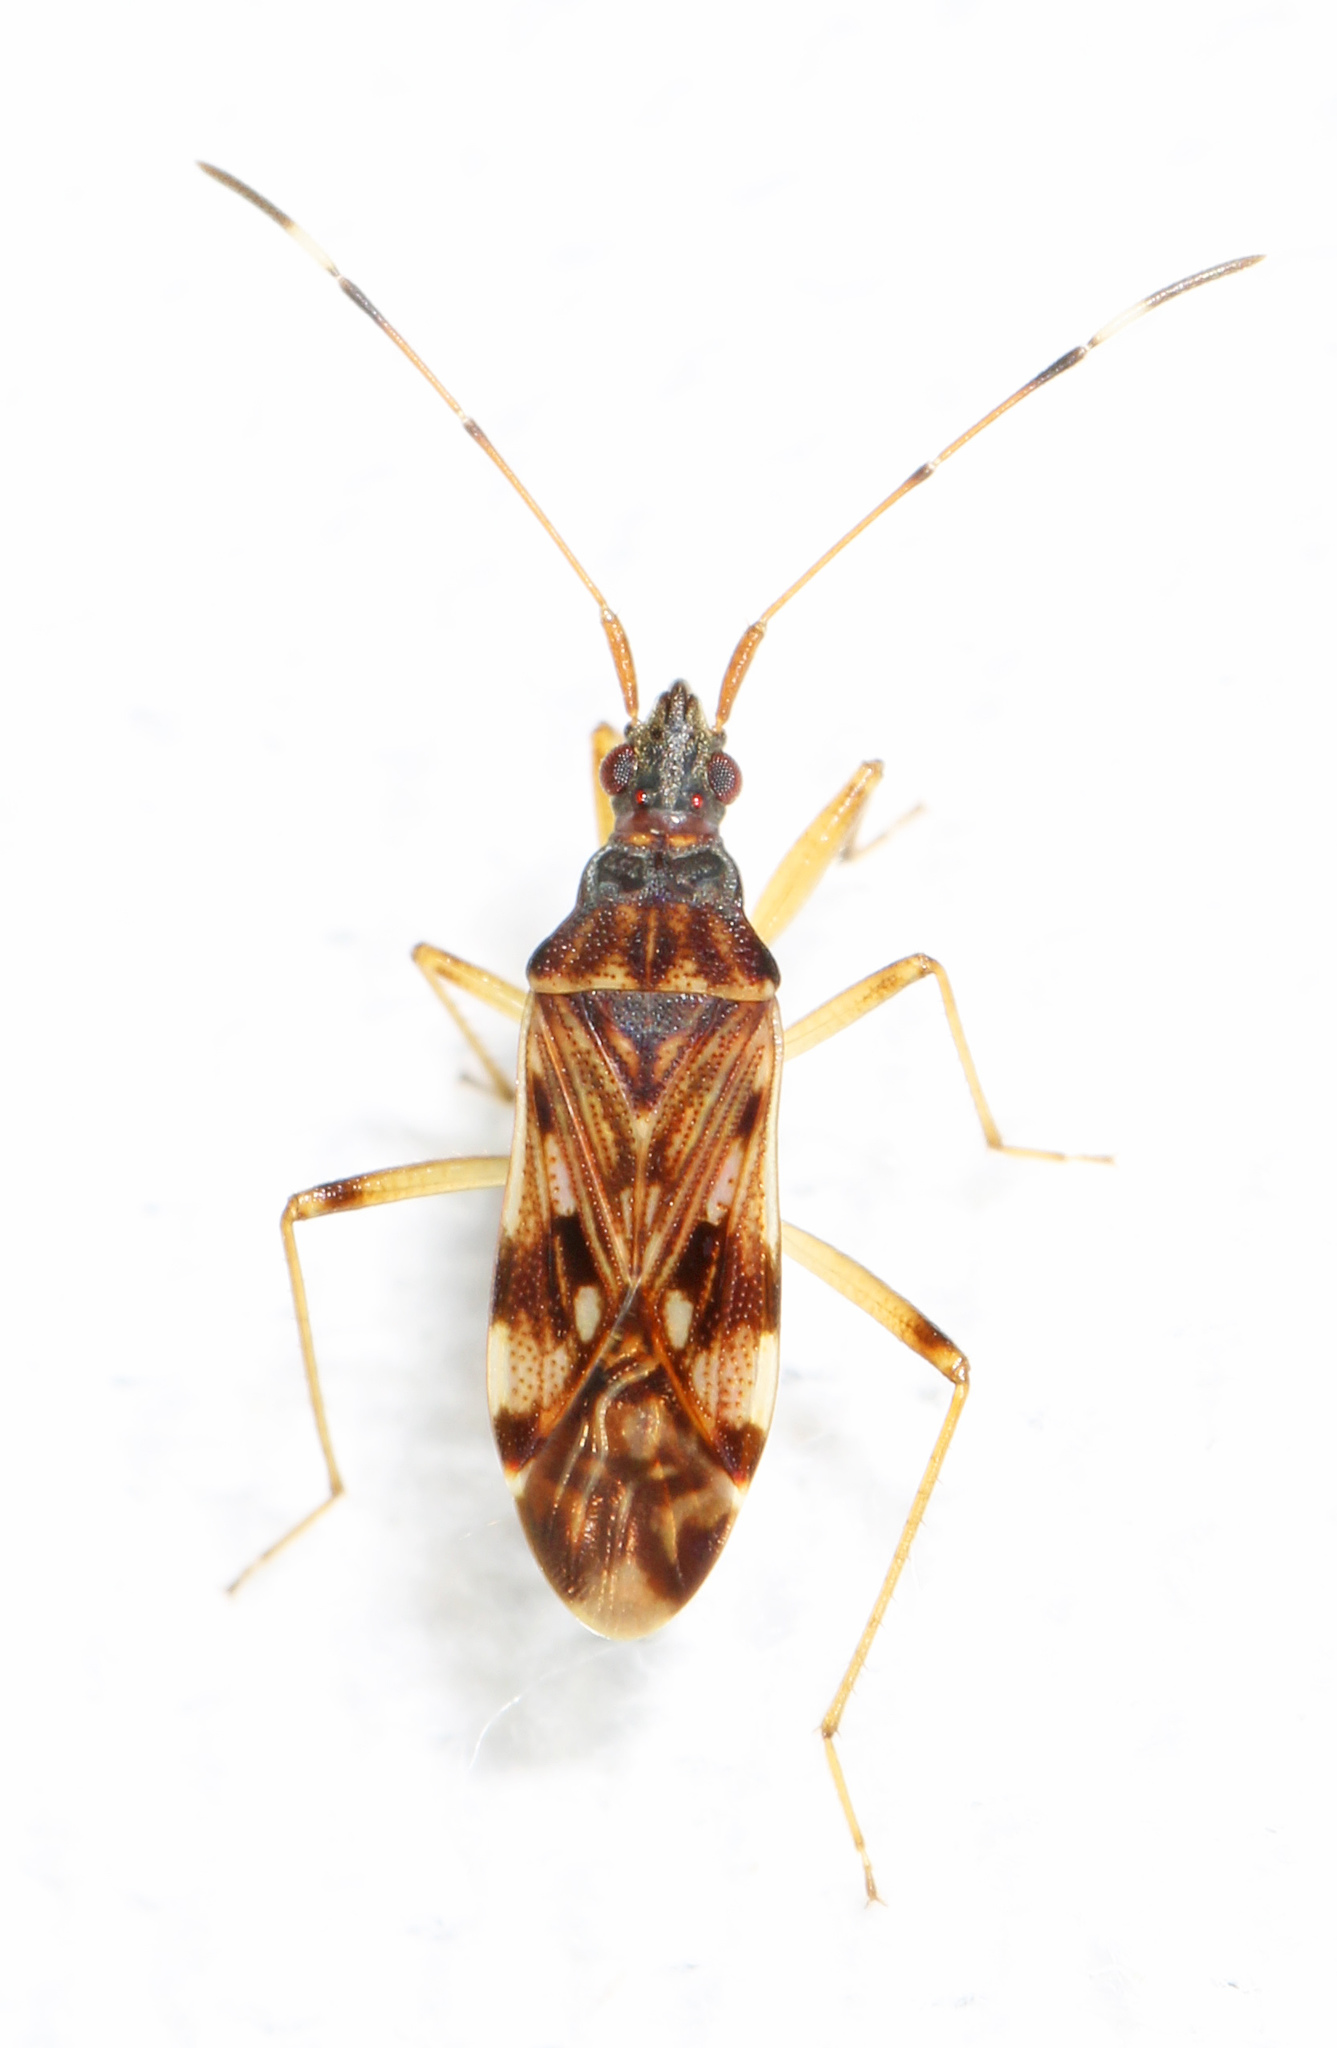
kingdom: Animalia
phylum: Arthropoda
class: Insecta
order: Hemiptera
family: Rhyparochromidae
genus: Ozophora
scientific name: Ozophora picturata
